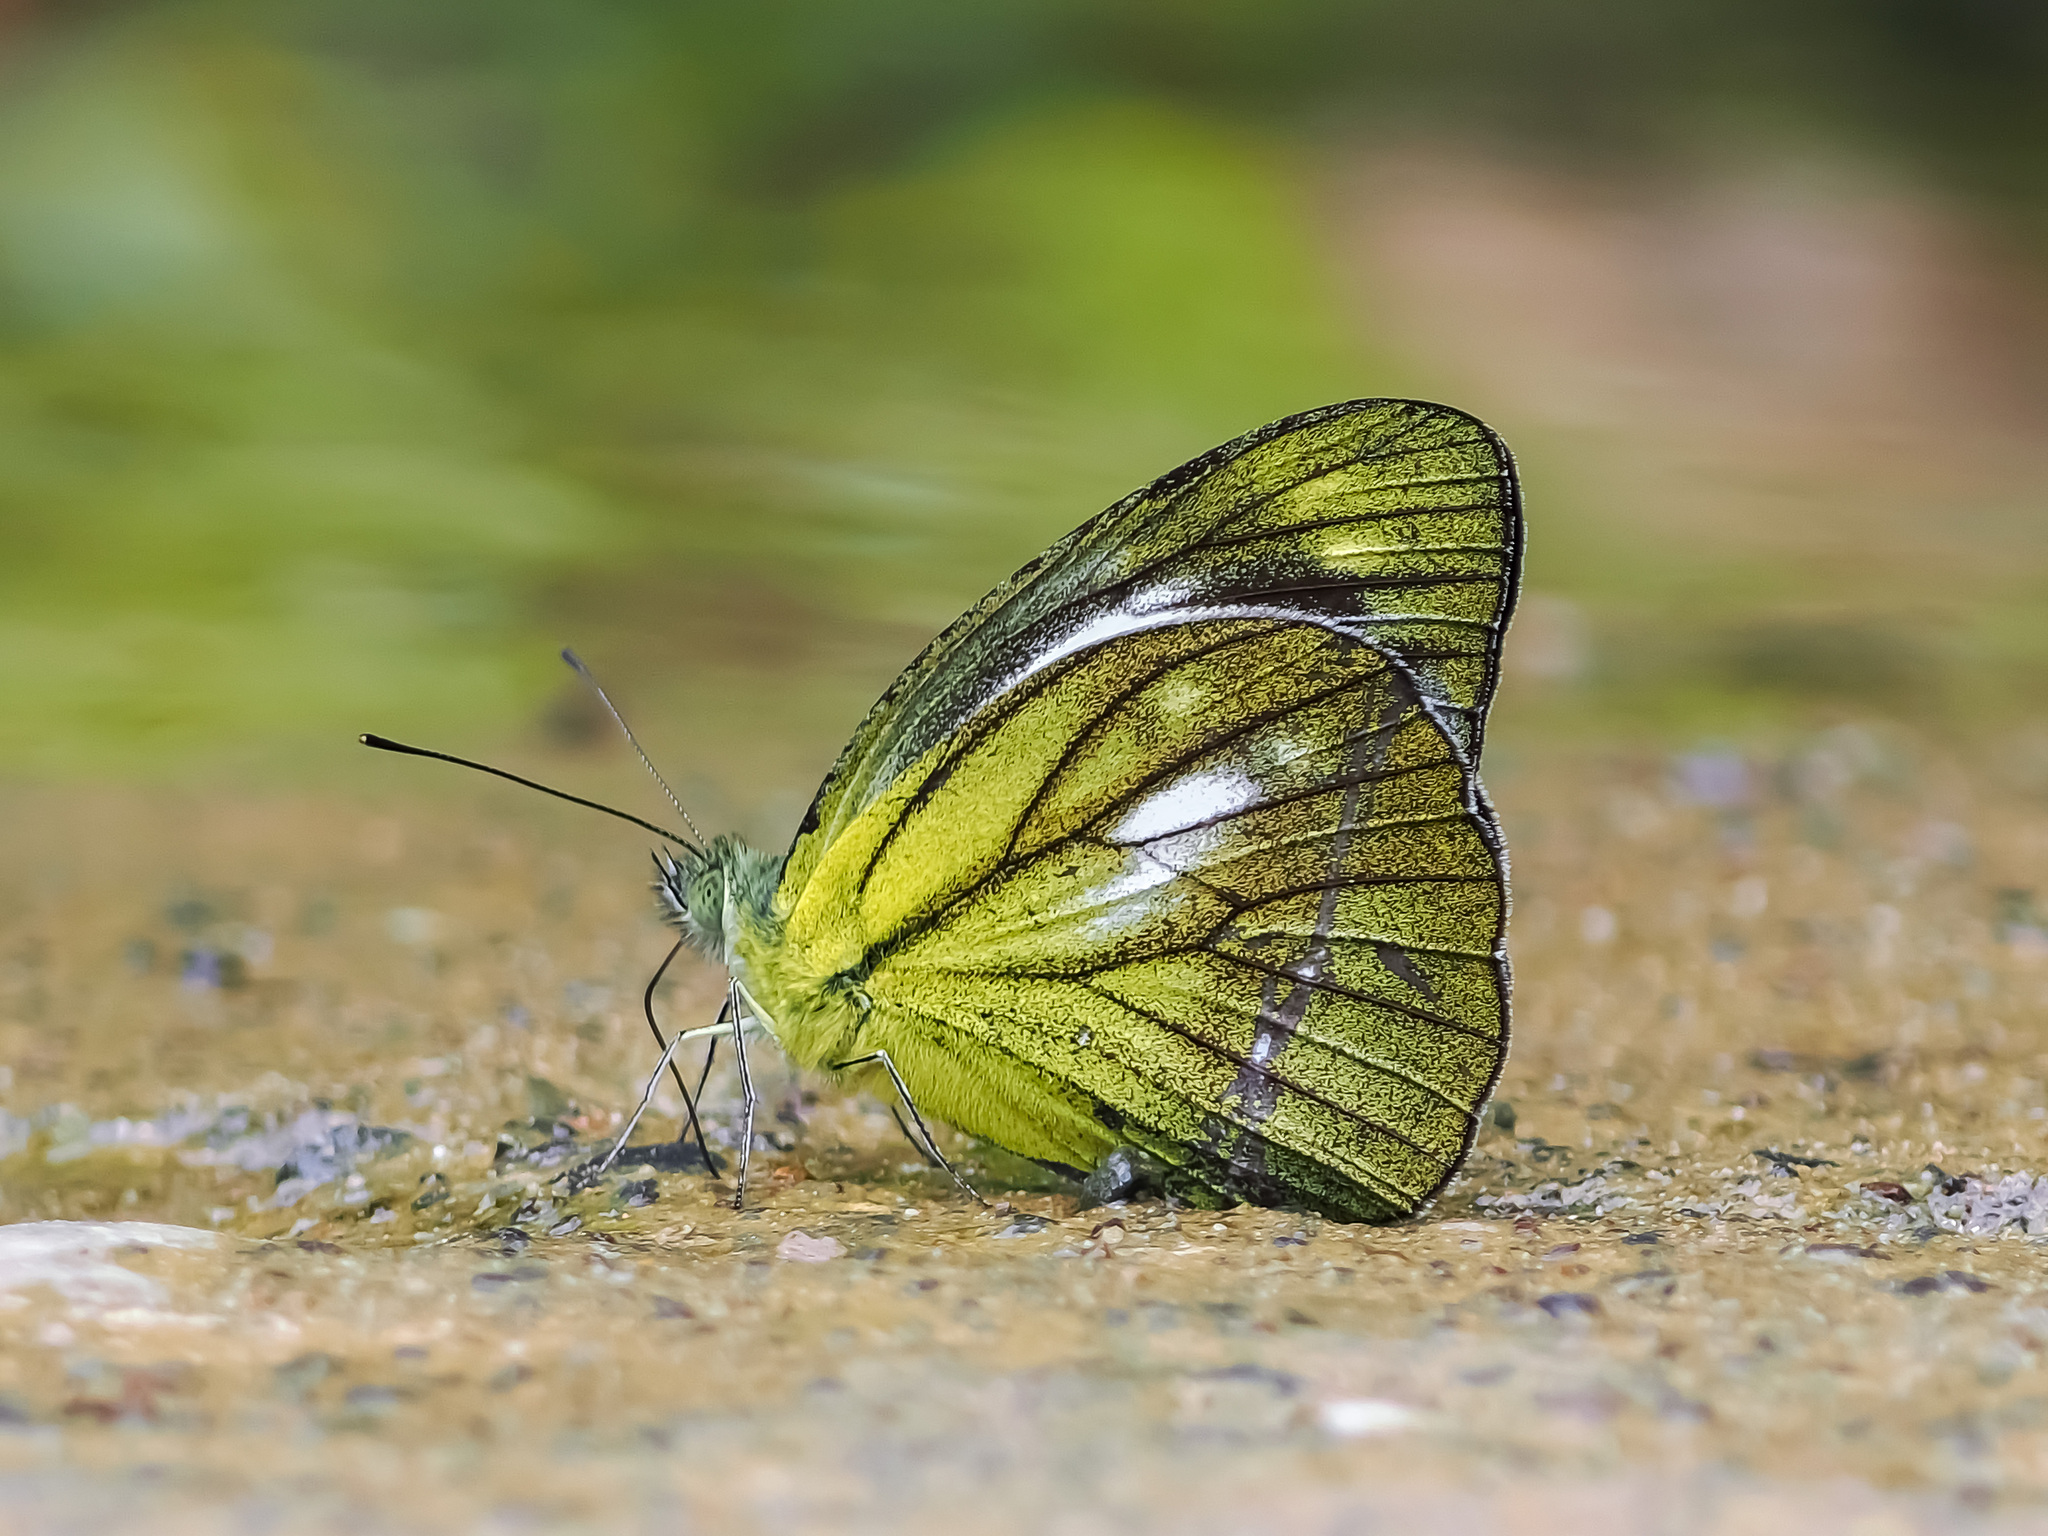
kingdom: Animalia
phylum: Arthropoda
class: Insecta
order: Lepidoptera
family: Pieridae
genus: Cepora
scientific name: Cepora nadina
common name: Lesser gull
